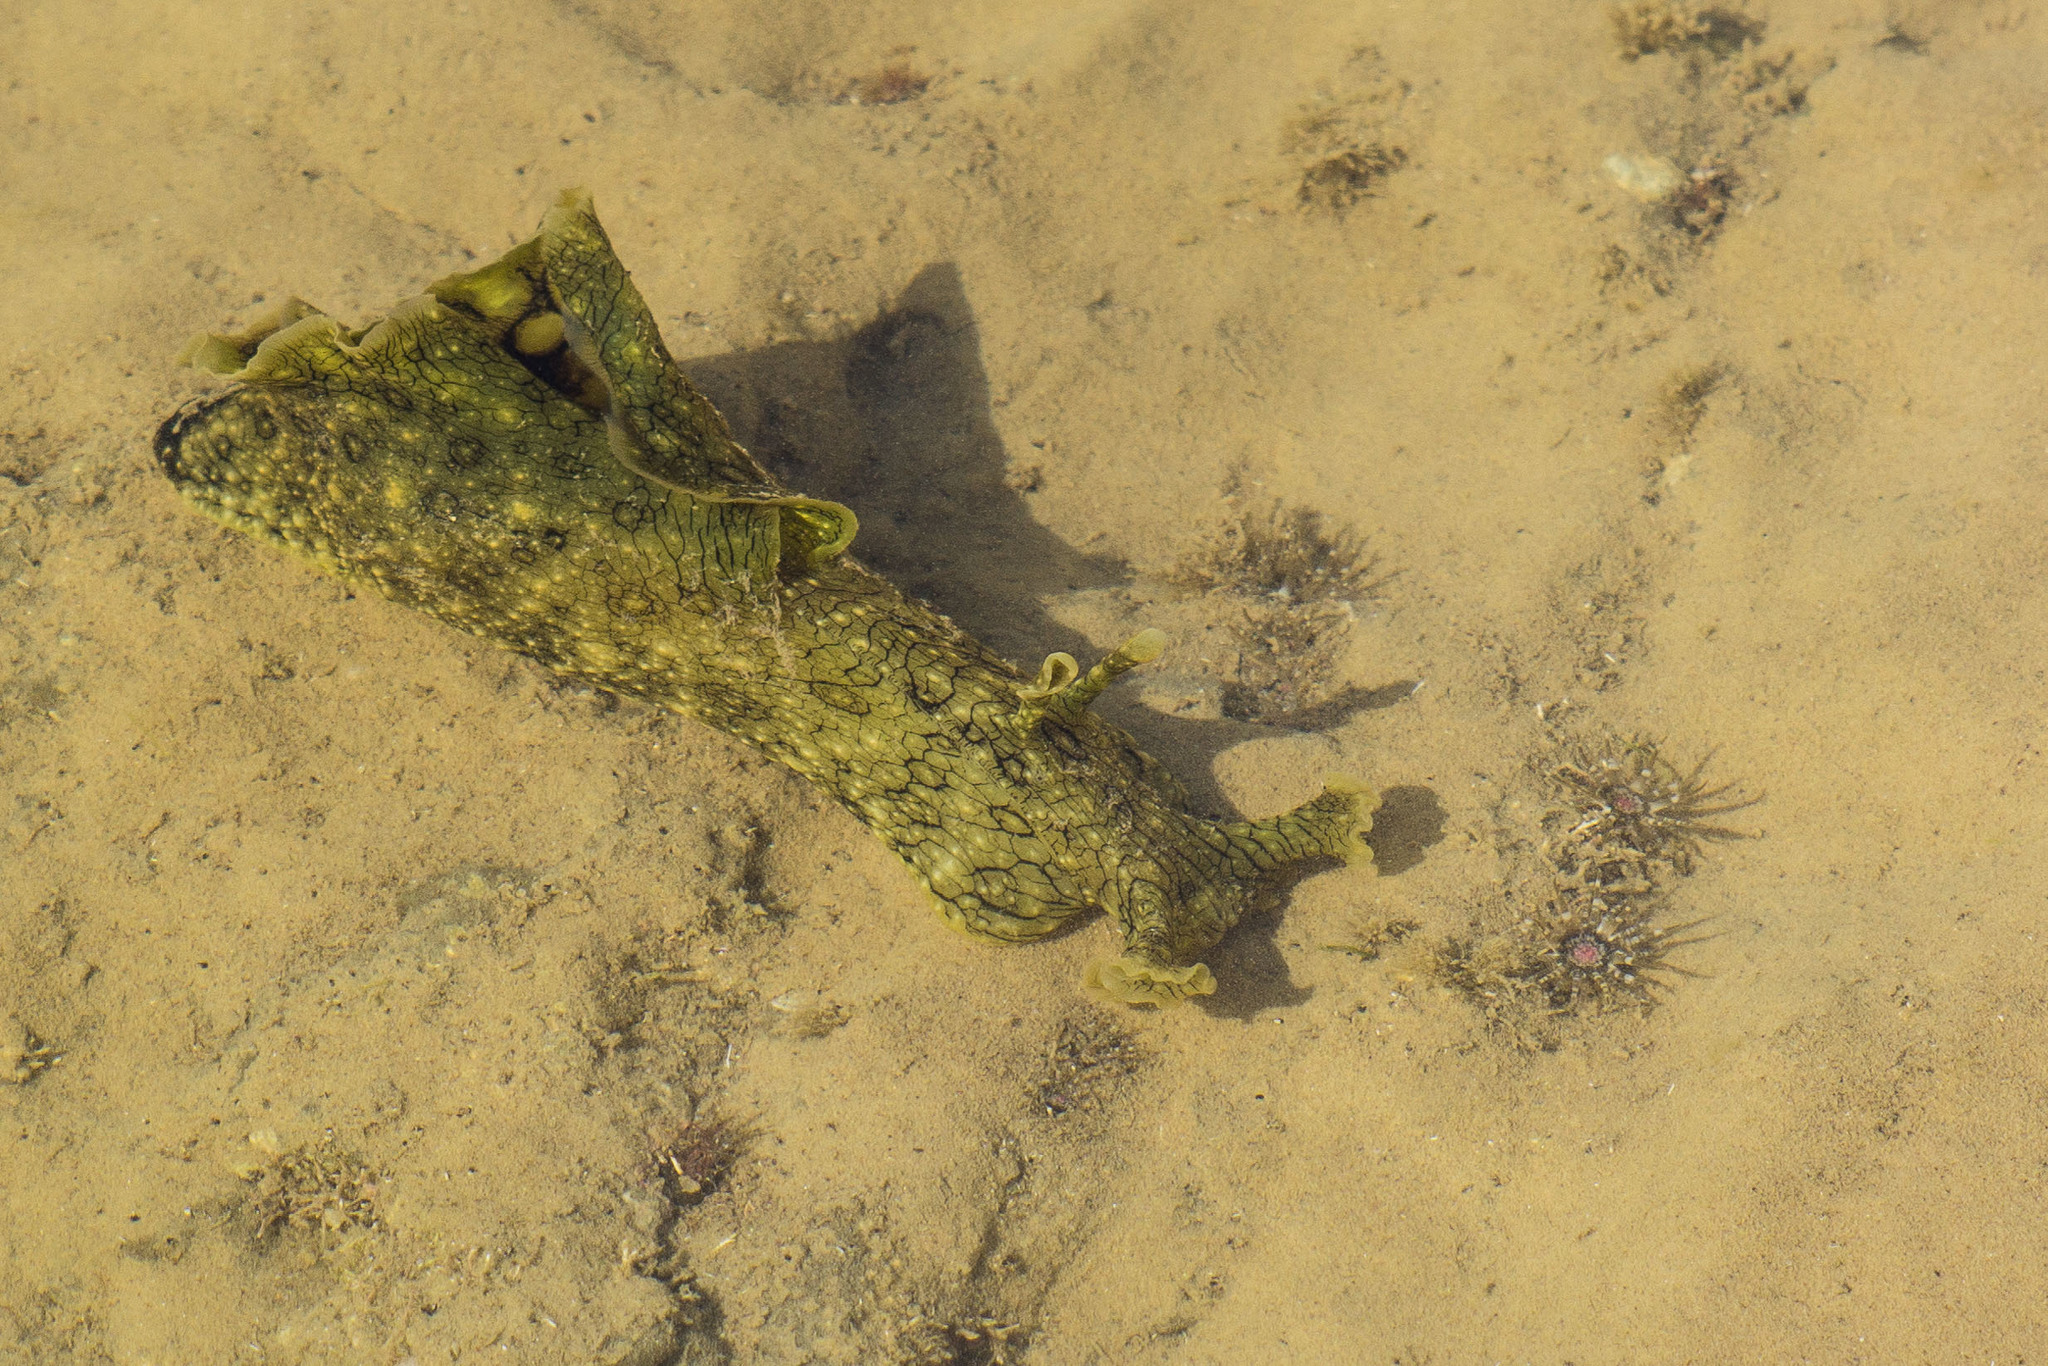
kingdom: Animalia
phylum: Mollusca
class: Gastropoda
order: Aplysiida
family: Aplysiidae
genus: Aplysia
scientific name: Aplysia argus
